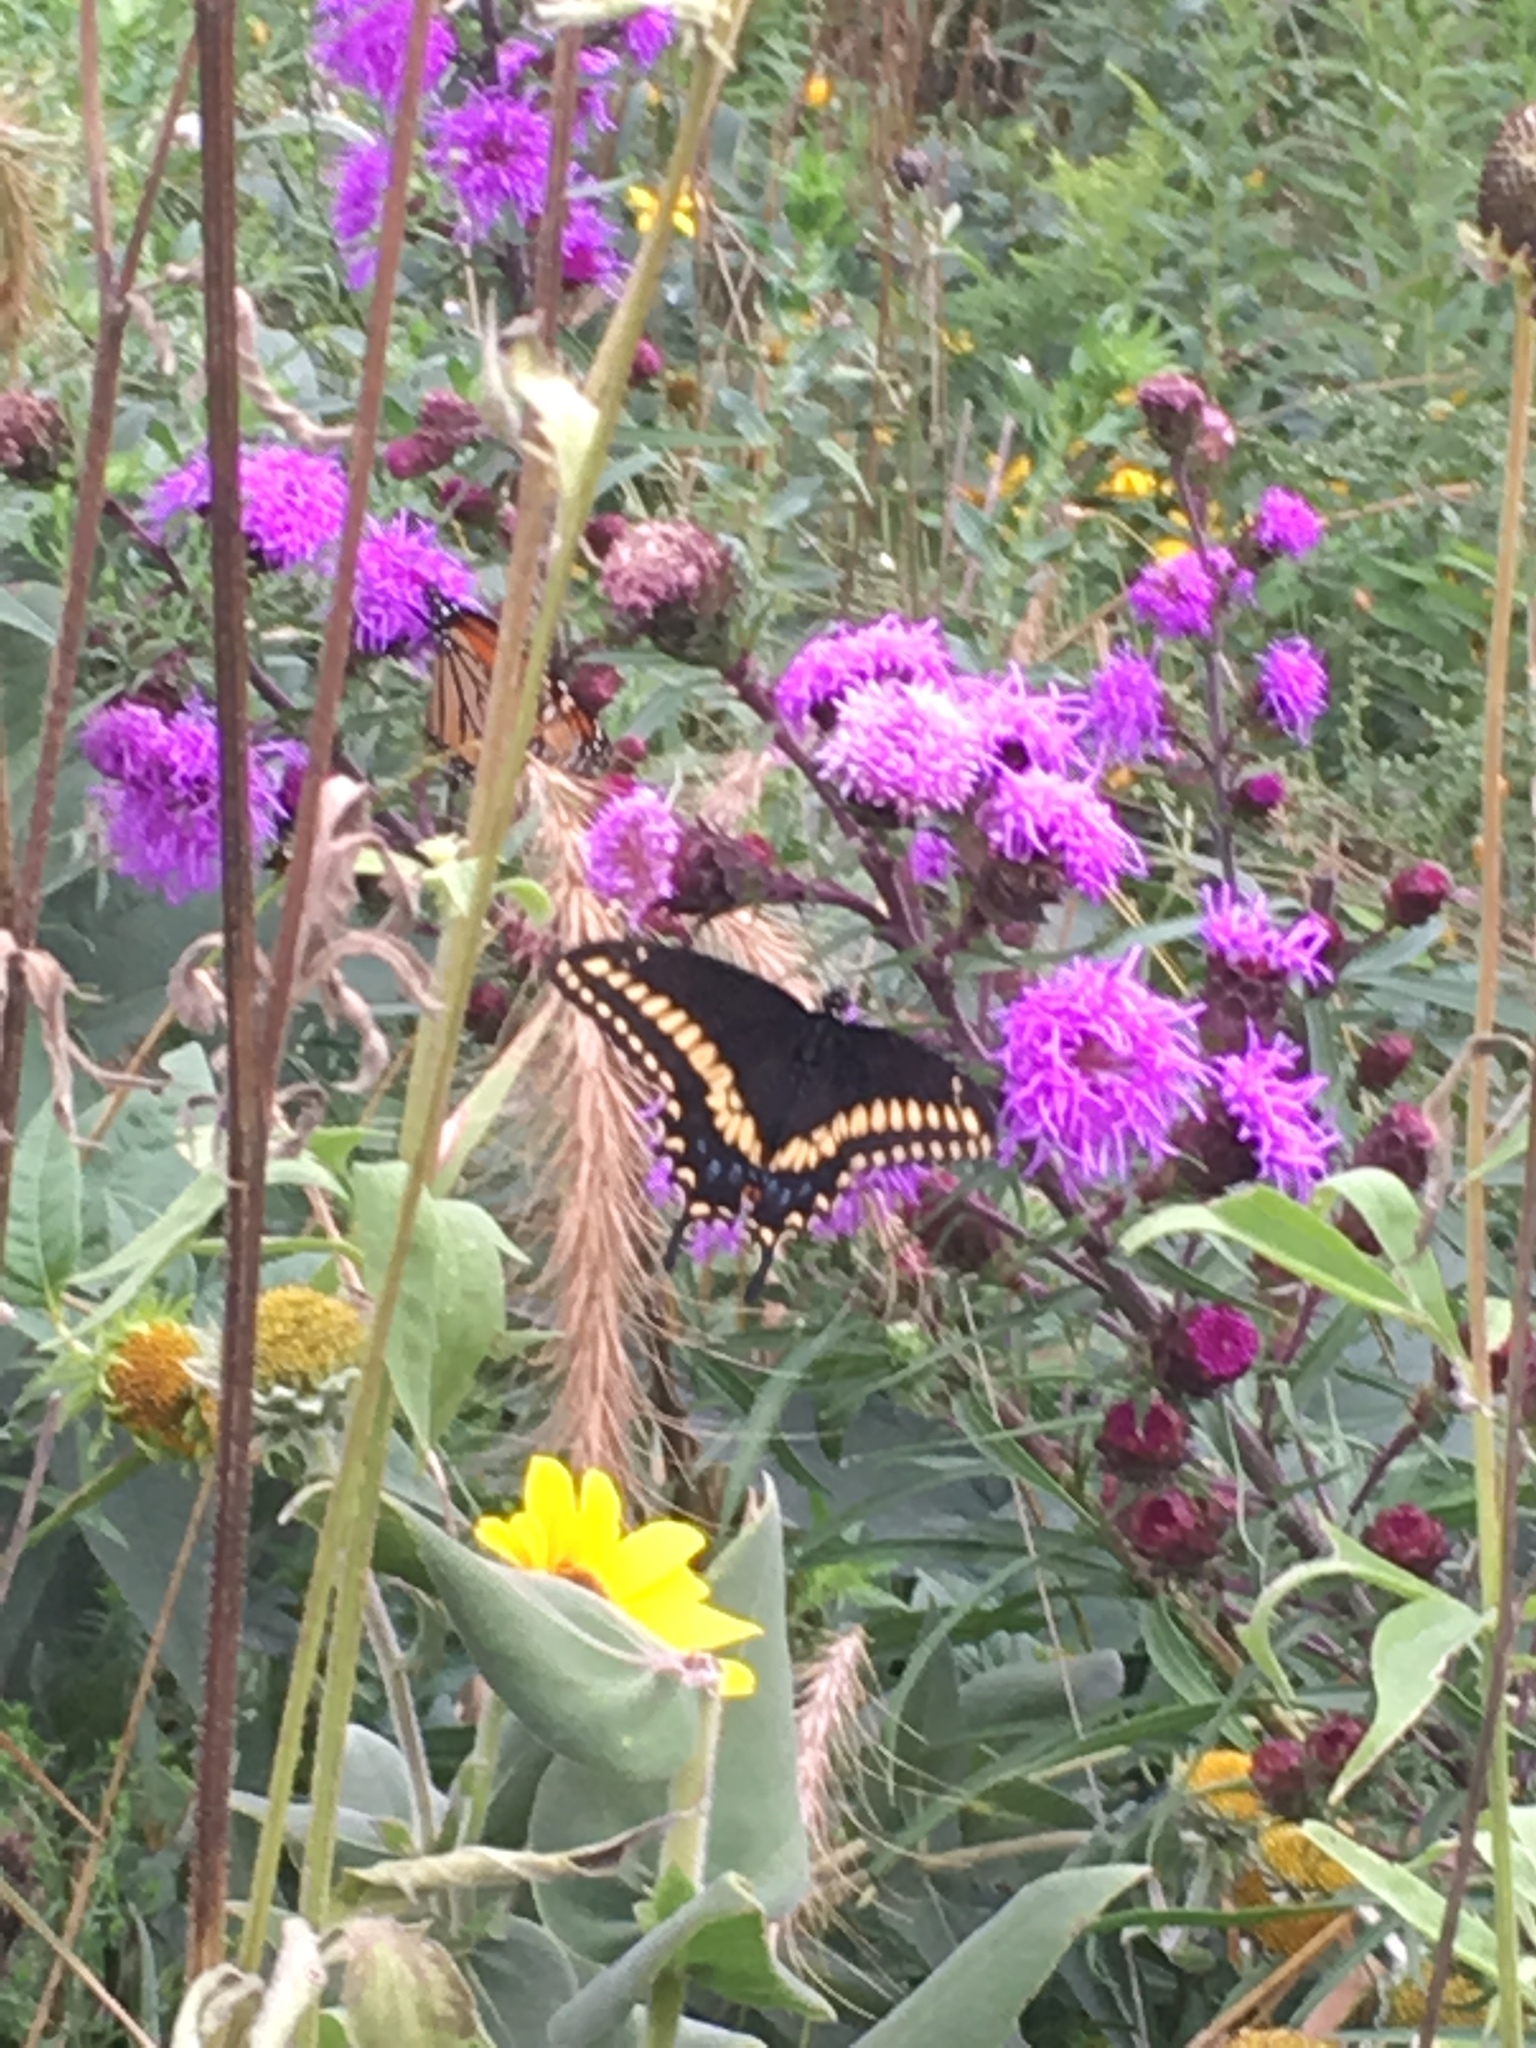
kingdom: Animalia
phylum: Arthropoda
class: Insecta
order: Lepidoptera
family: Papilionidae
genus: Papilio
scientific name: Papilio polyxenes
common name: Black swallowtail
